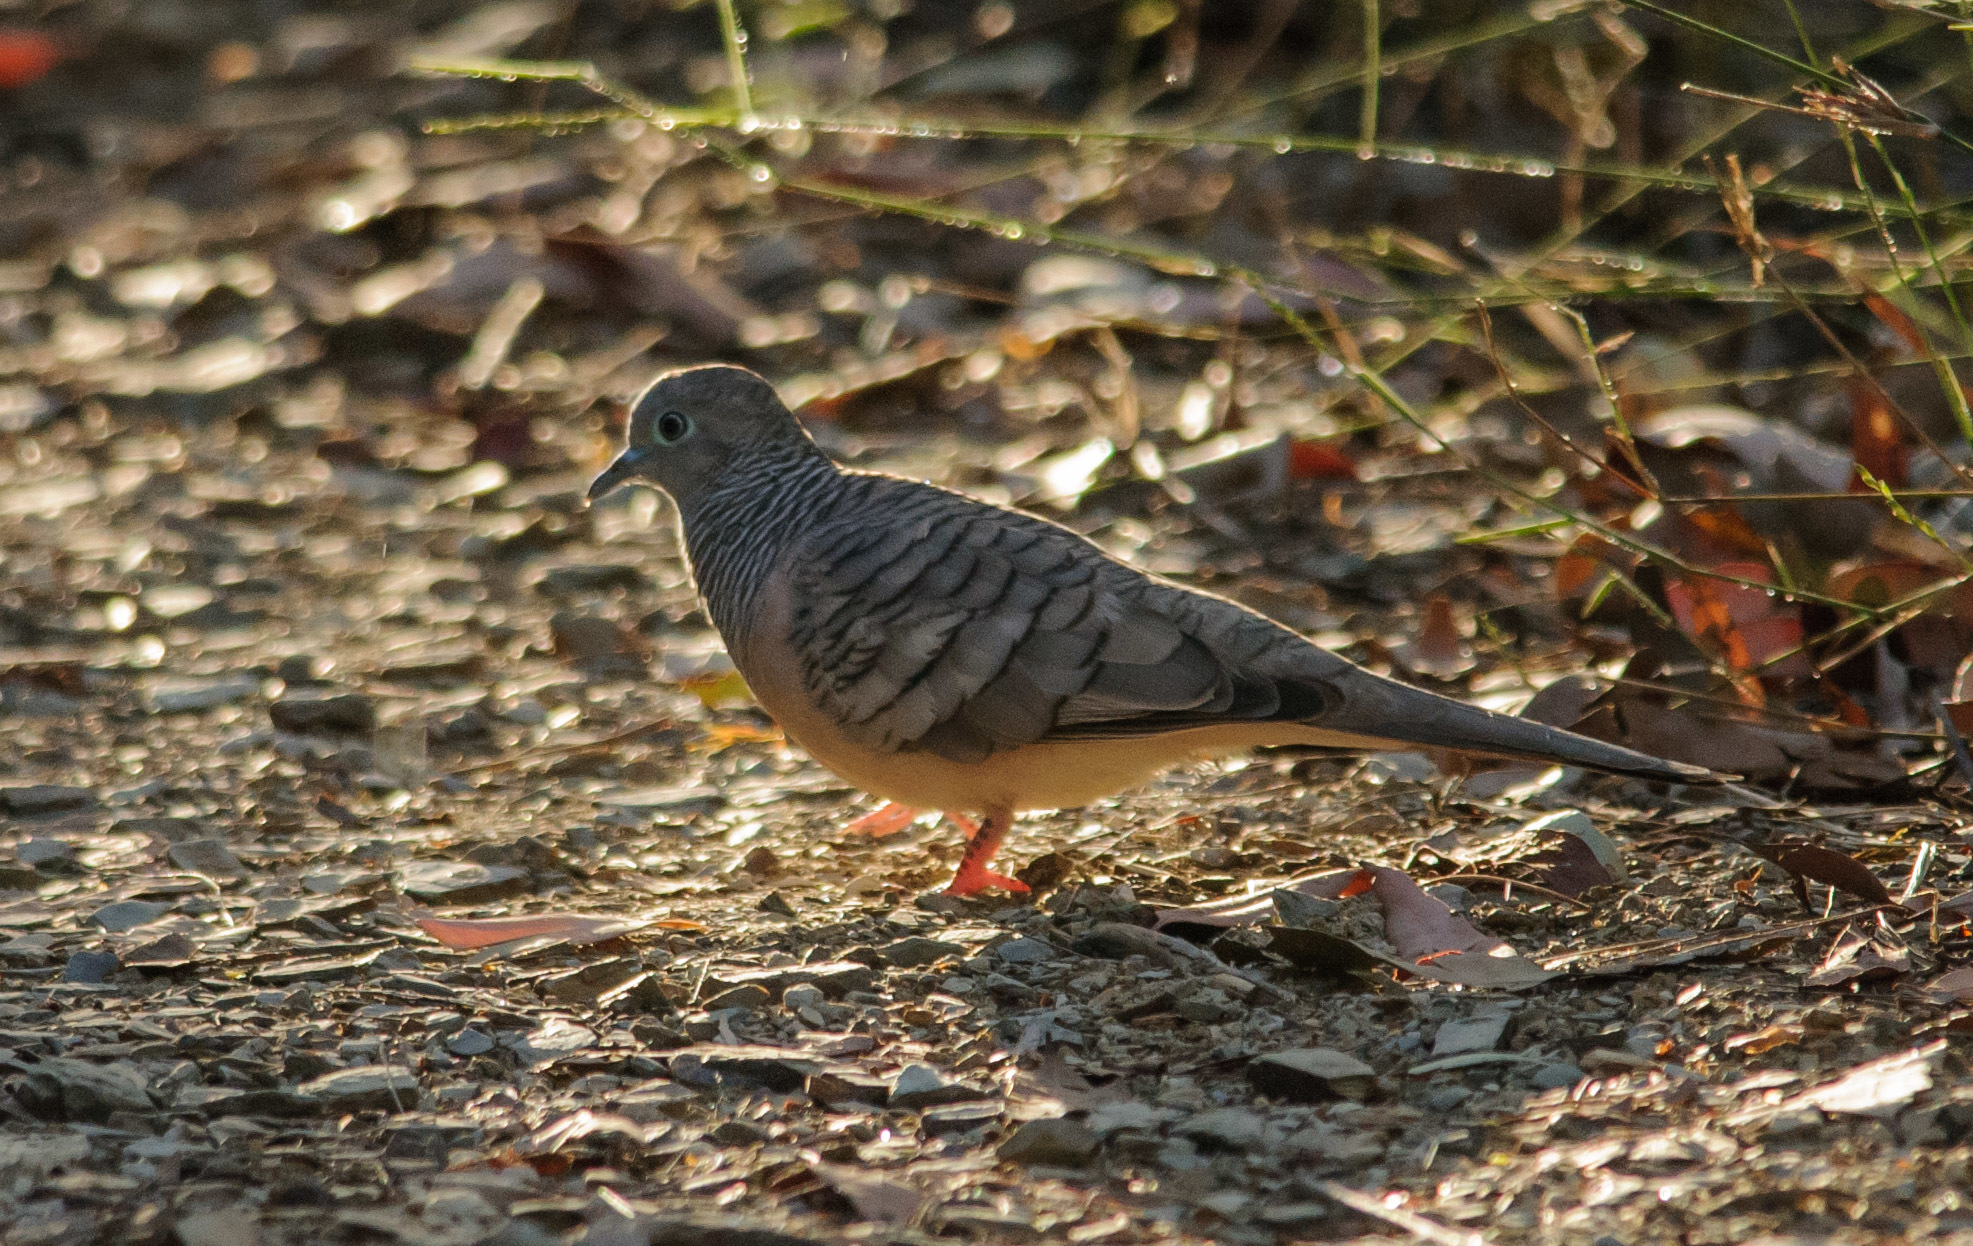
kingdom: Animalia
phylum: Chordata
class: Aves
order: Columbiformes
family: Columbidae
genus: Geopelia
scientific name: Geopelia placida
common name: Peaceful dove
